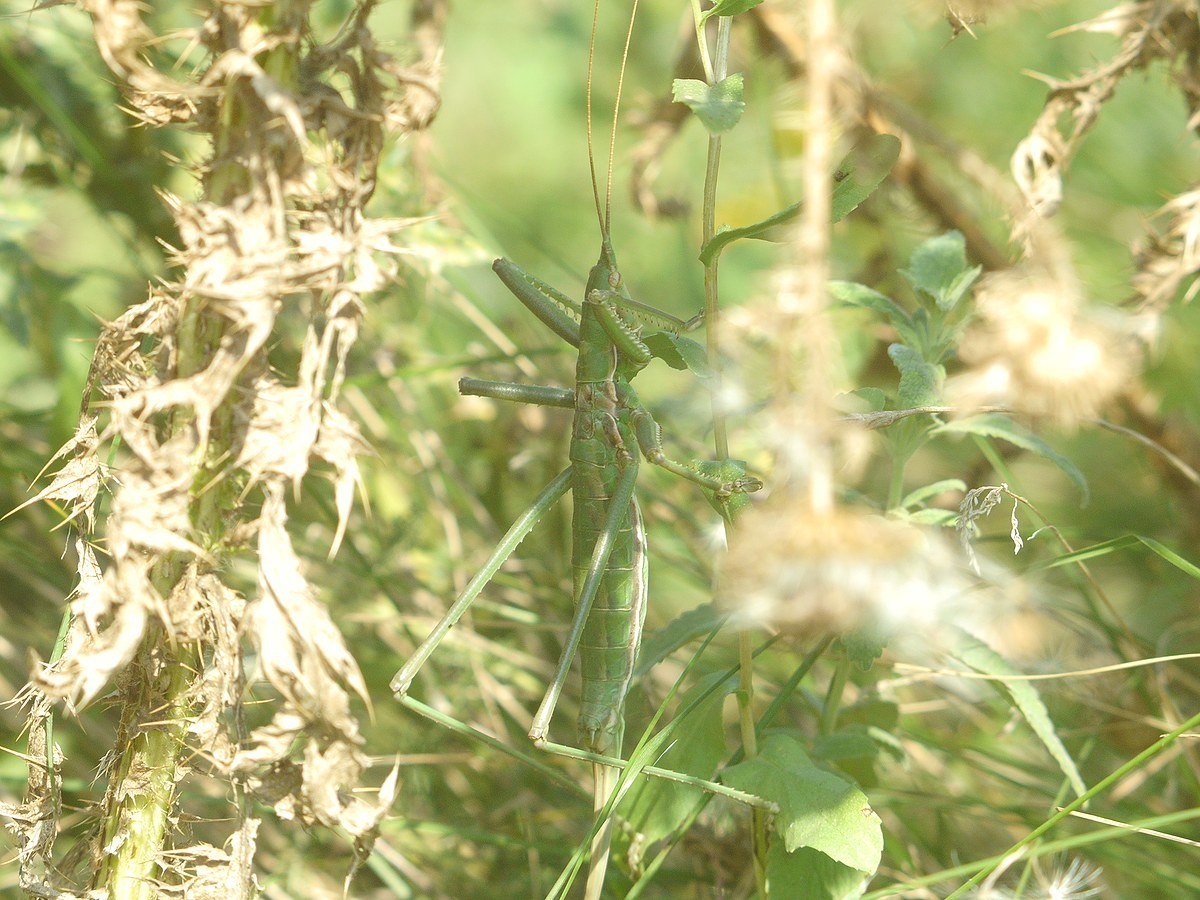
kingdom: Animalia
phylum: Arthropoda
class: Insecta
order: Orthoptera
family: Tettigoniidae
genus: Saga
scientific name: Saga pedo
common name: Common predatory bush-cricket
